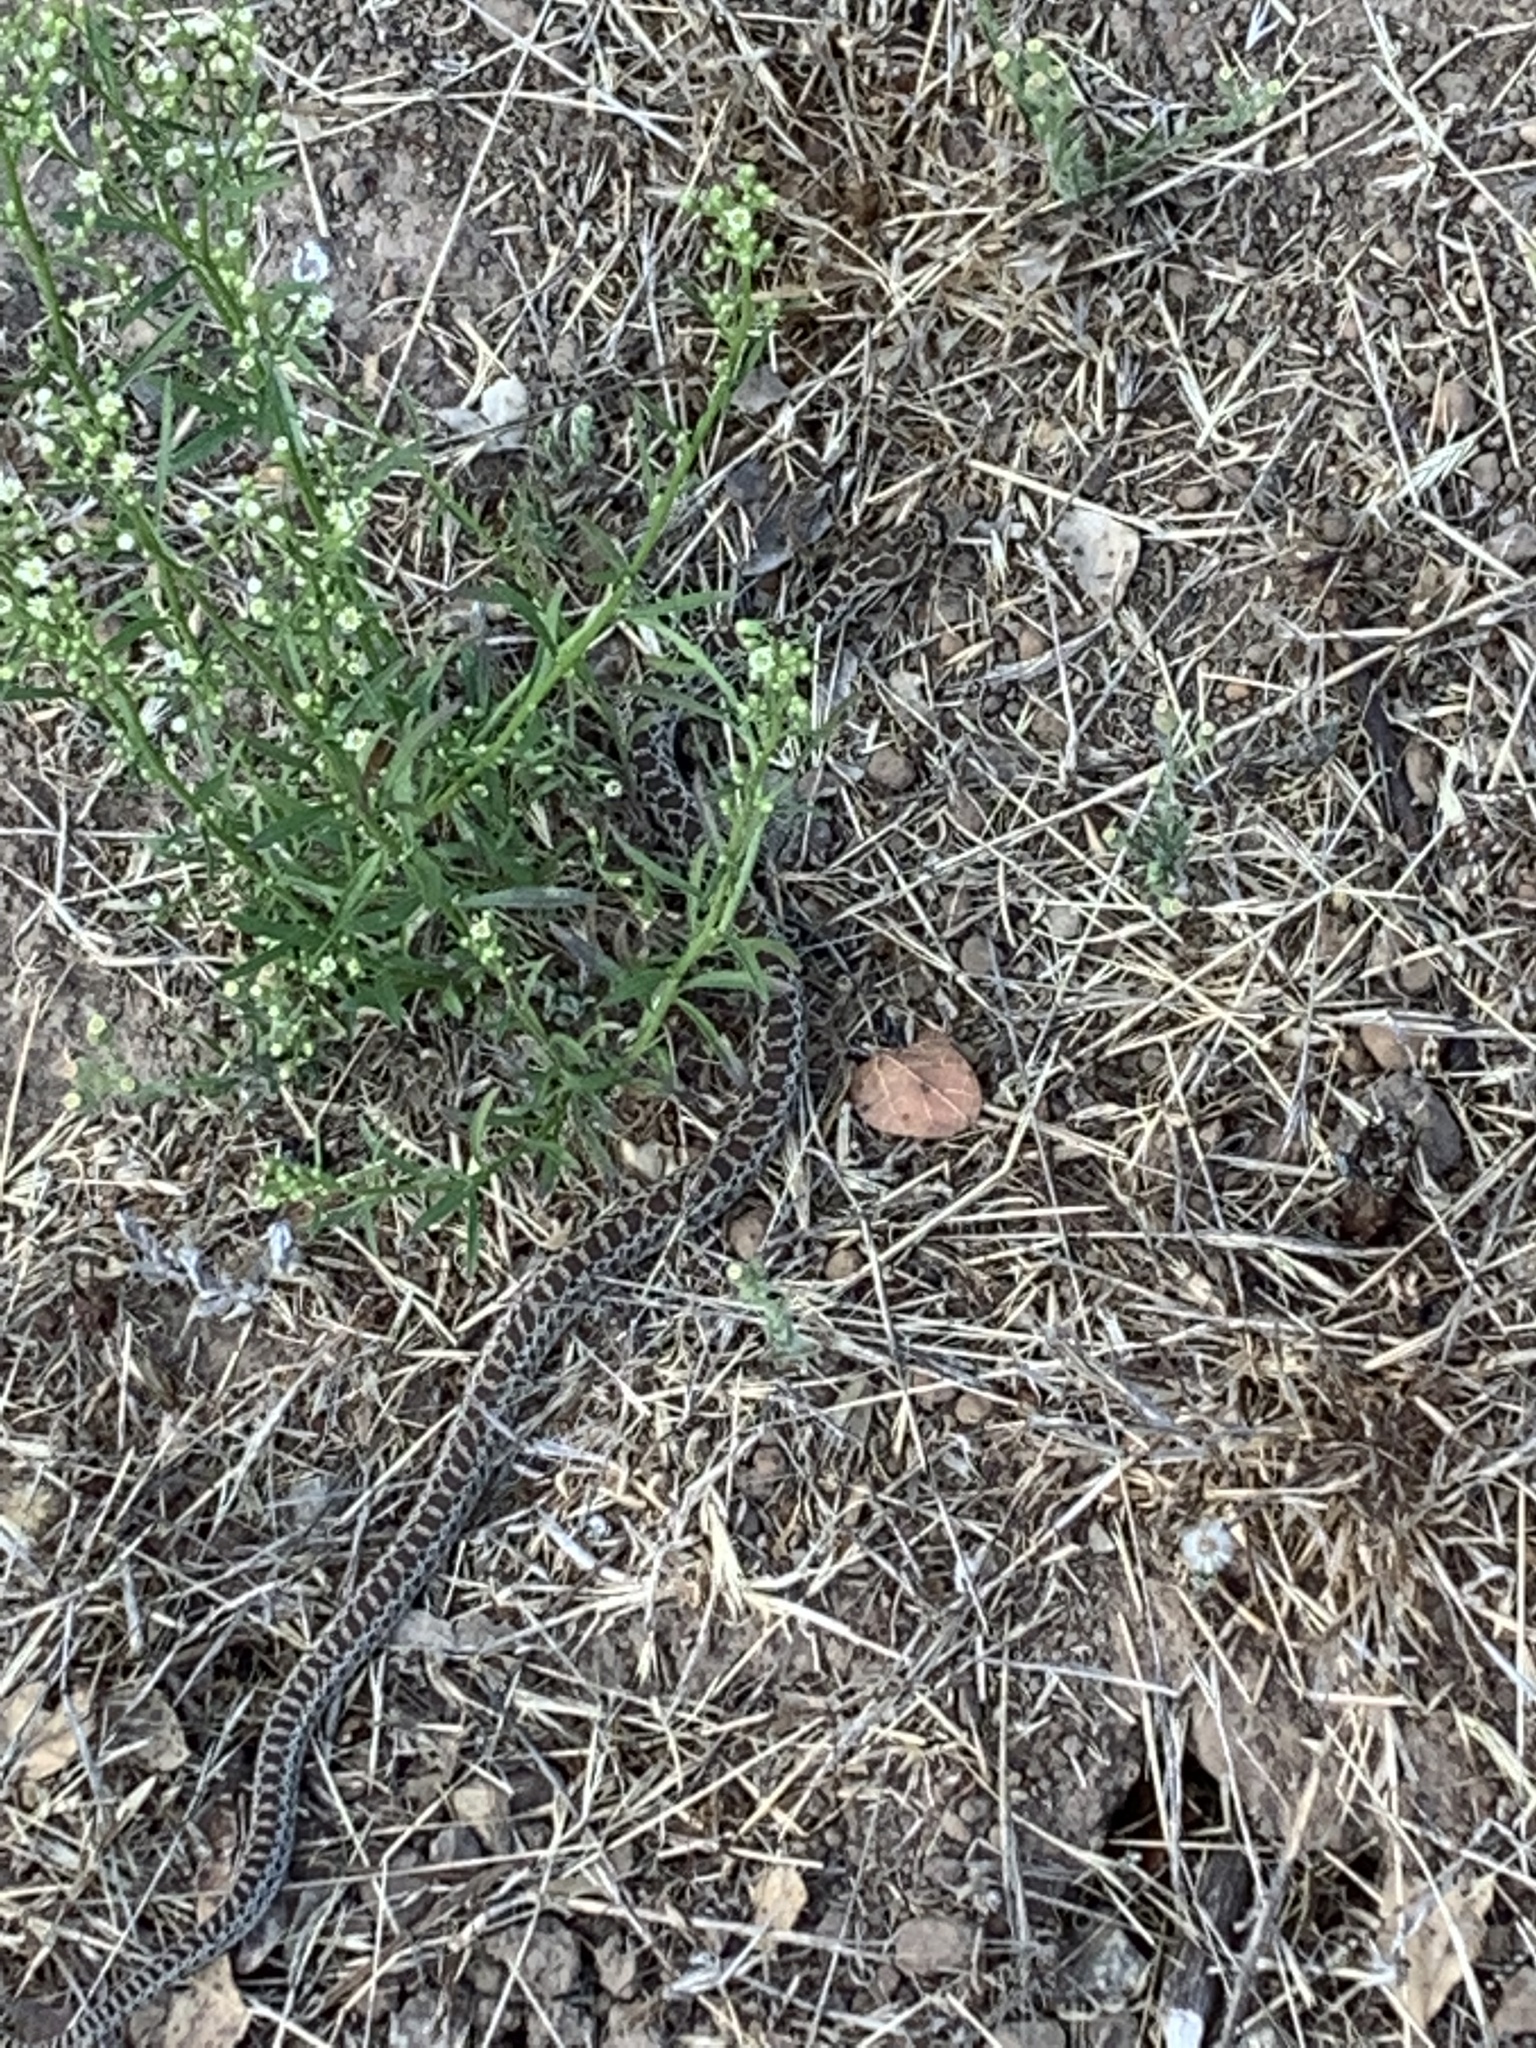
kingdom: Animalia
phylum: Chordata
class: Squamata
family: Colubridae
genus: Pituophis
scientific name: Pituophis catenifer
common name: Gopher snake
